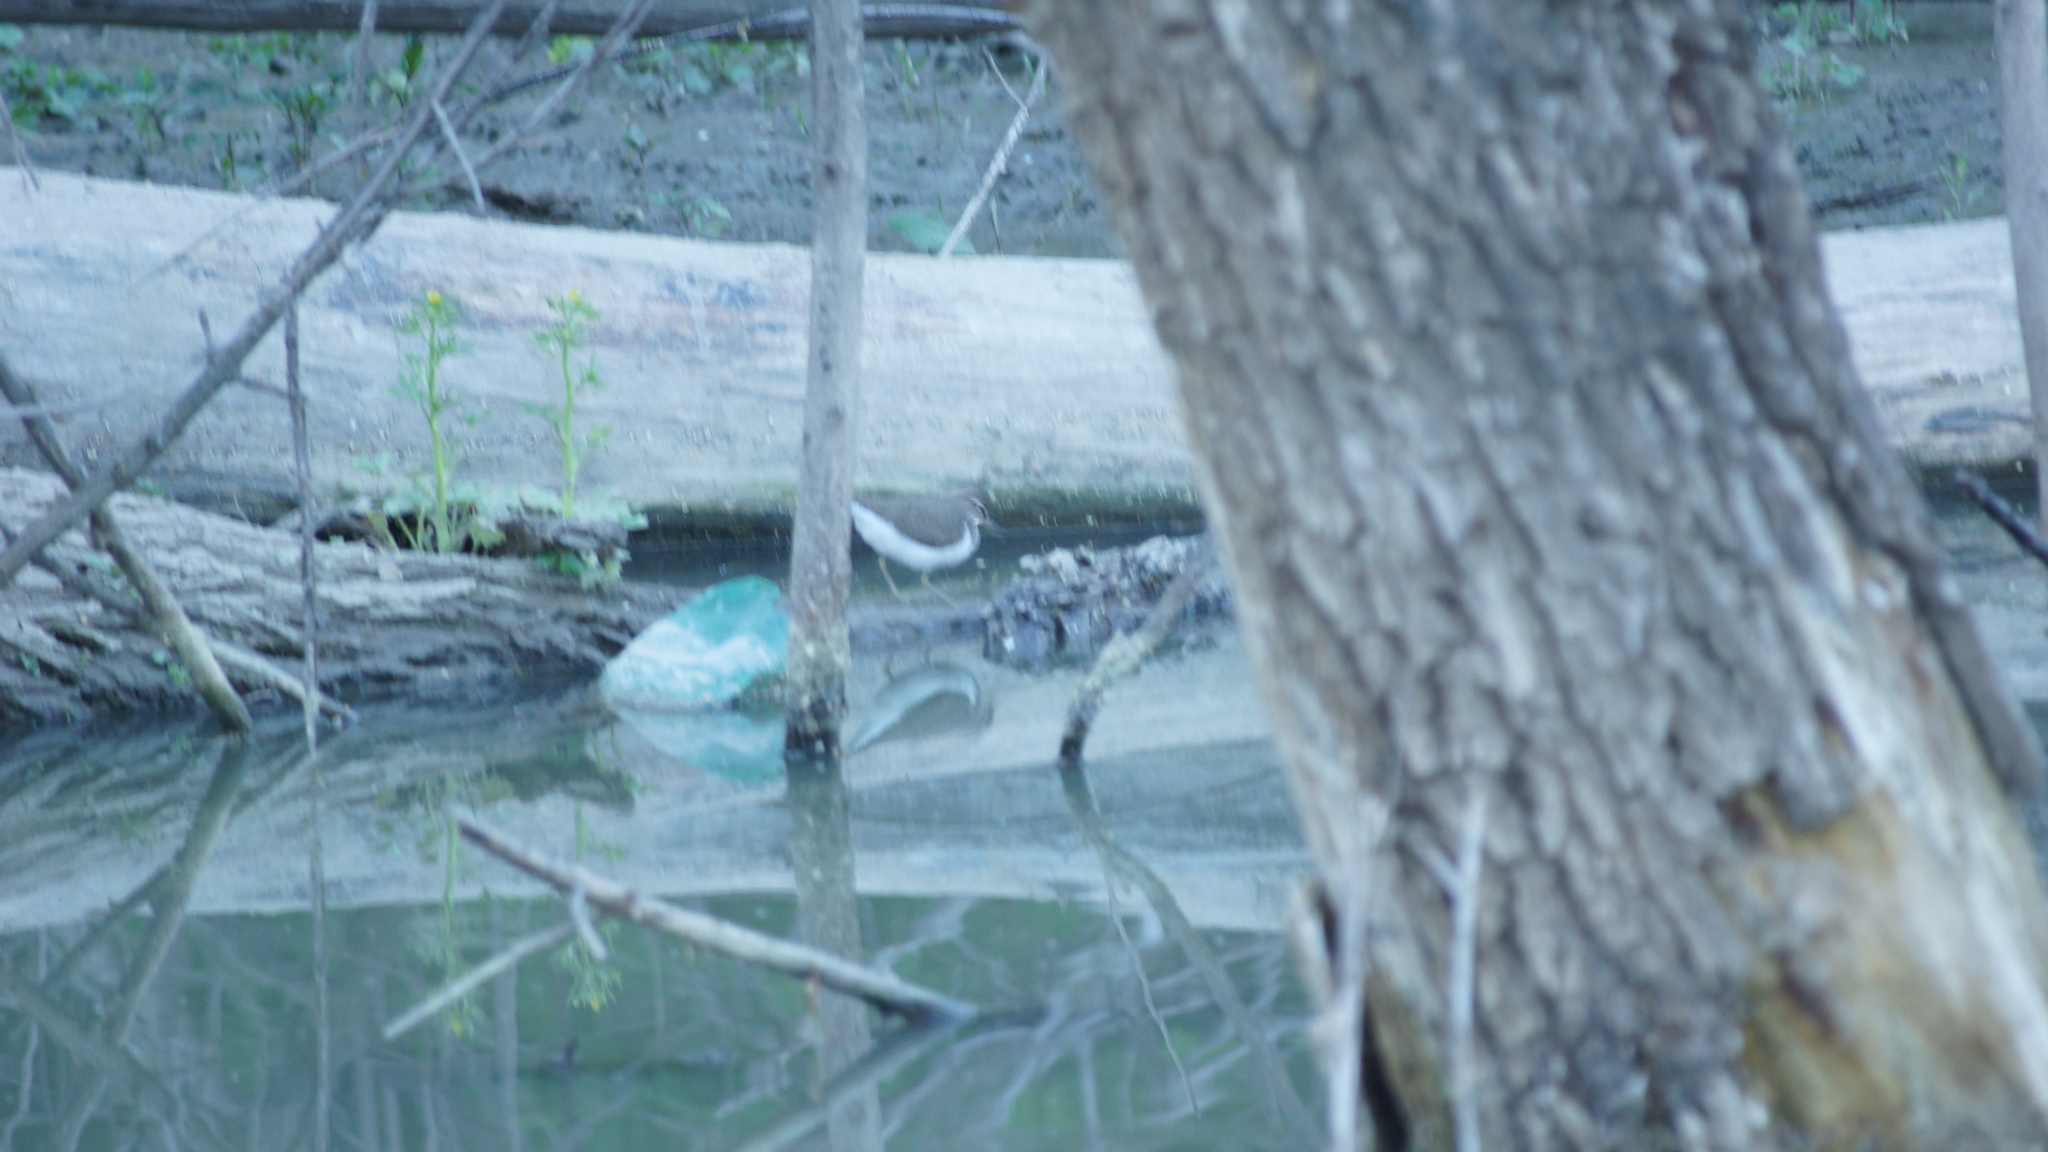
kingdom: Animalia
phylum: Chordata
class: Aves
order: Charadriiformes
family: Scolopacidae
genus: Actitis
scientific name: Actitis hypoleucos
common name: Common sandpiper
